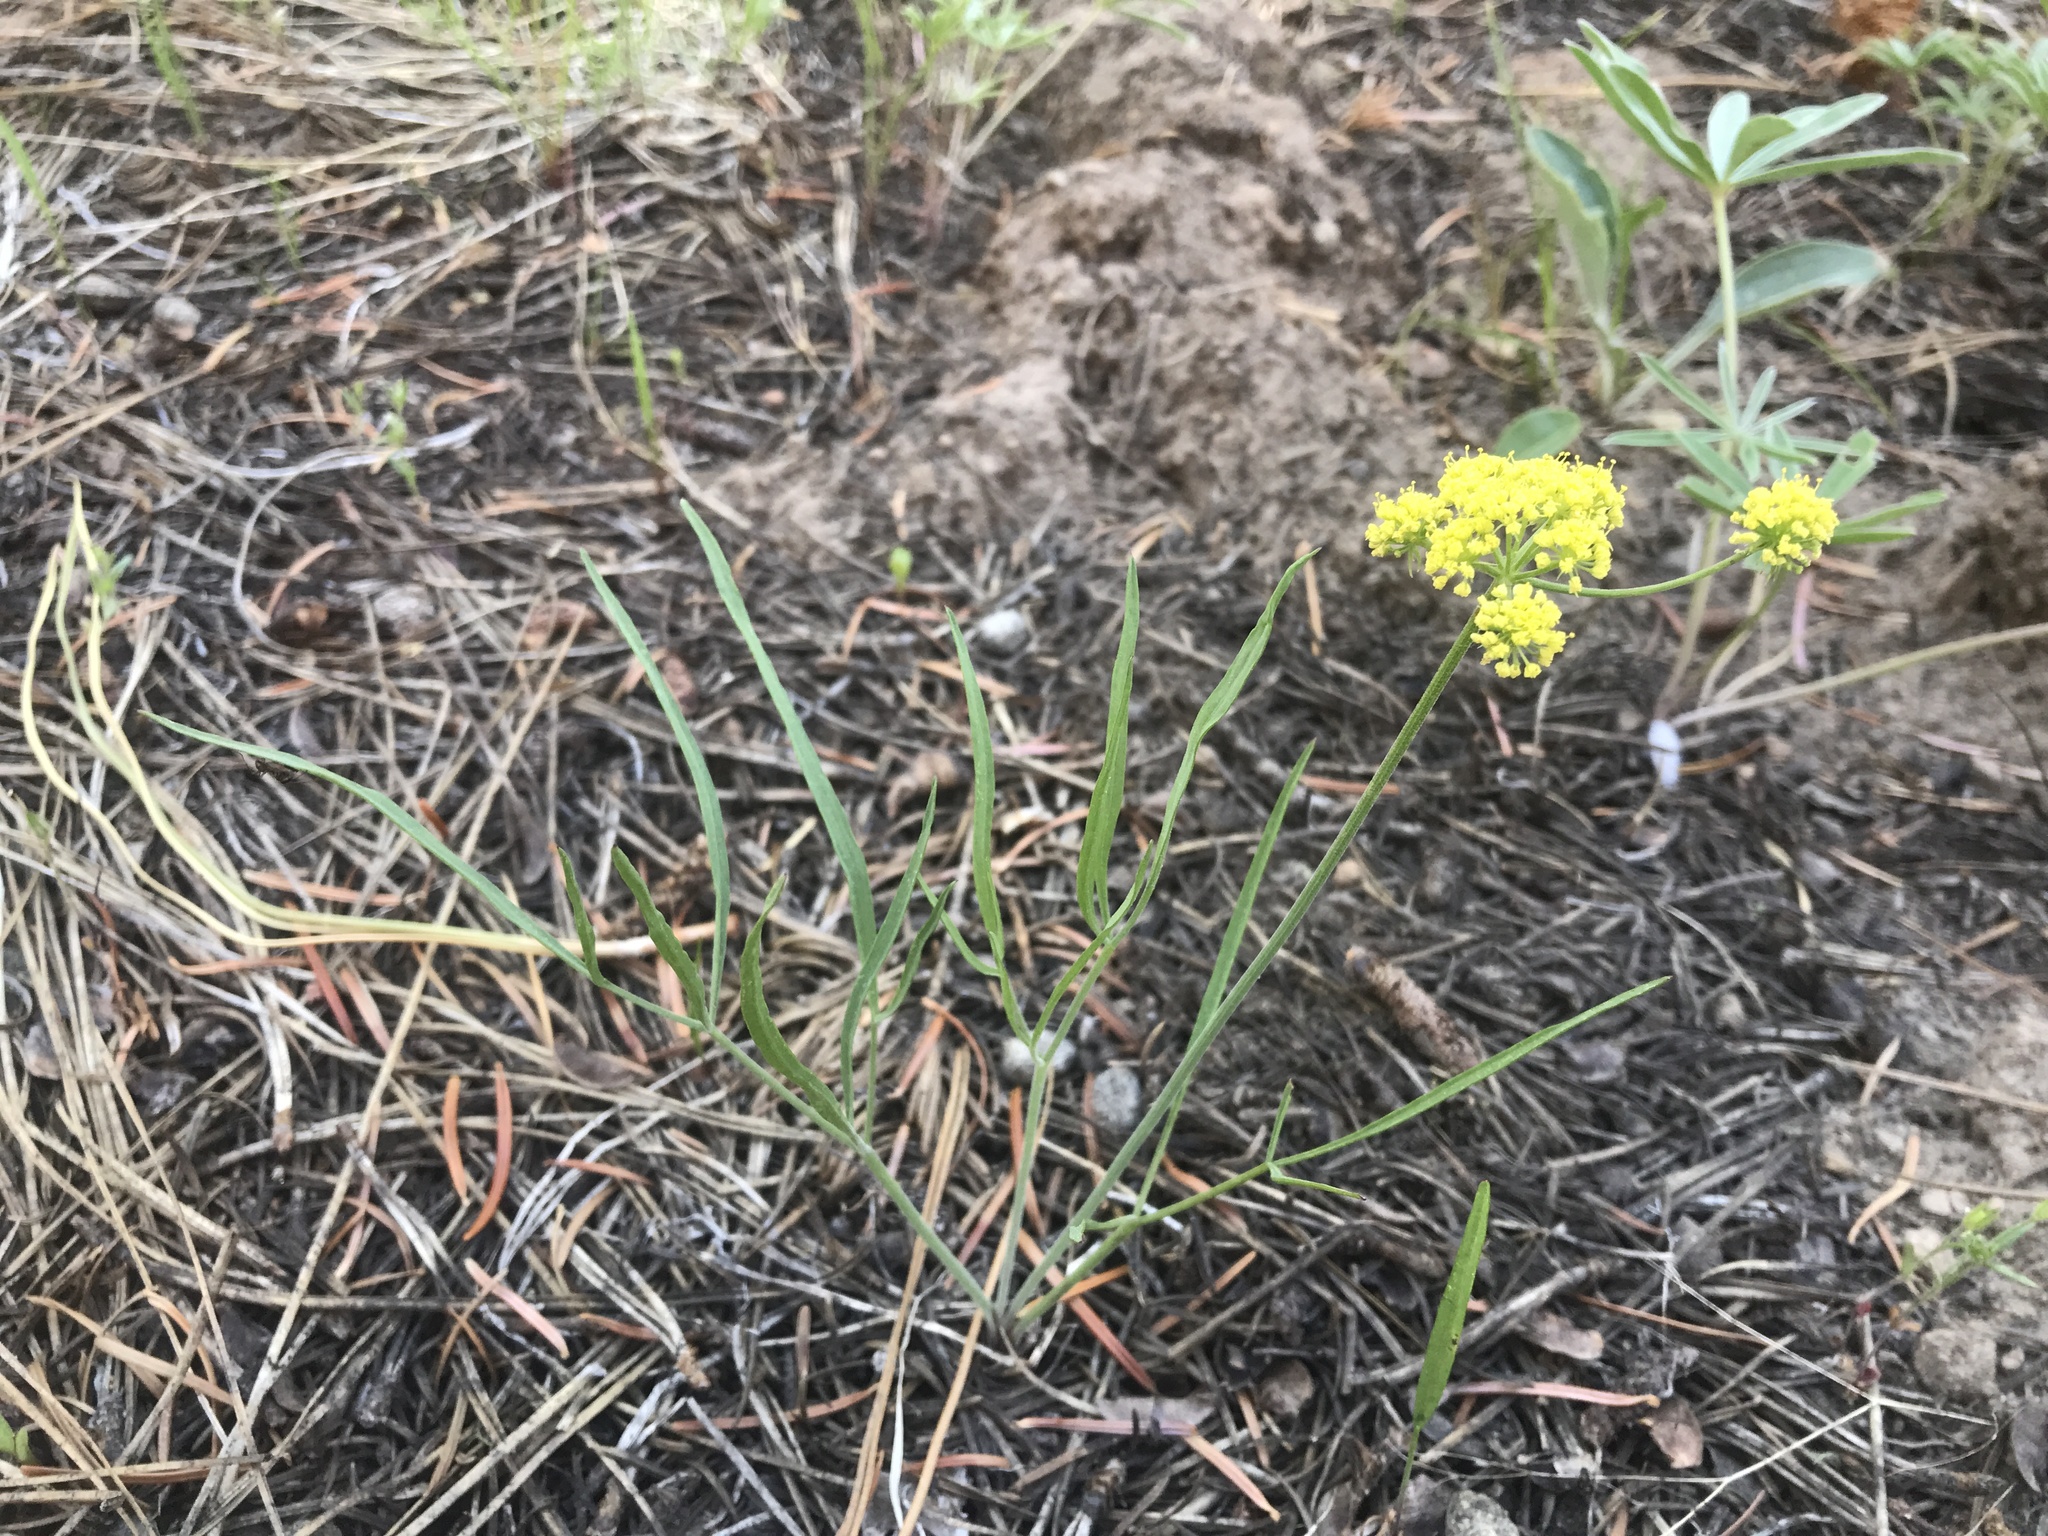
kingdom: Plantae
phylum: Tracheophyta
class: Magnoliopsida
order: Apiales
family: Apiaceae
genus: Lomatium
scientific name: Lomatium triternatum
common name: Ternate lomatium
